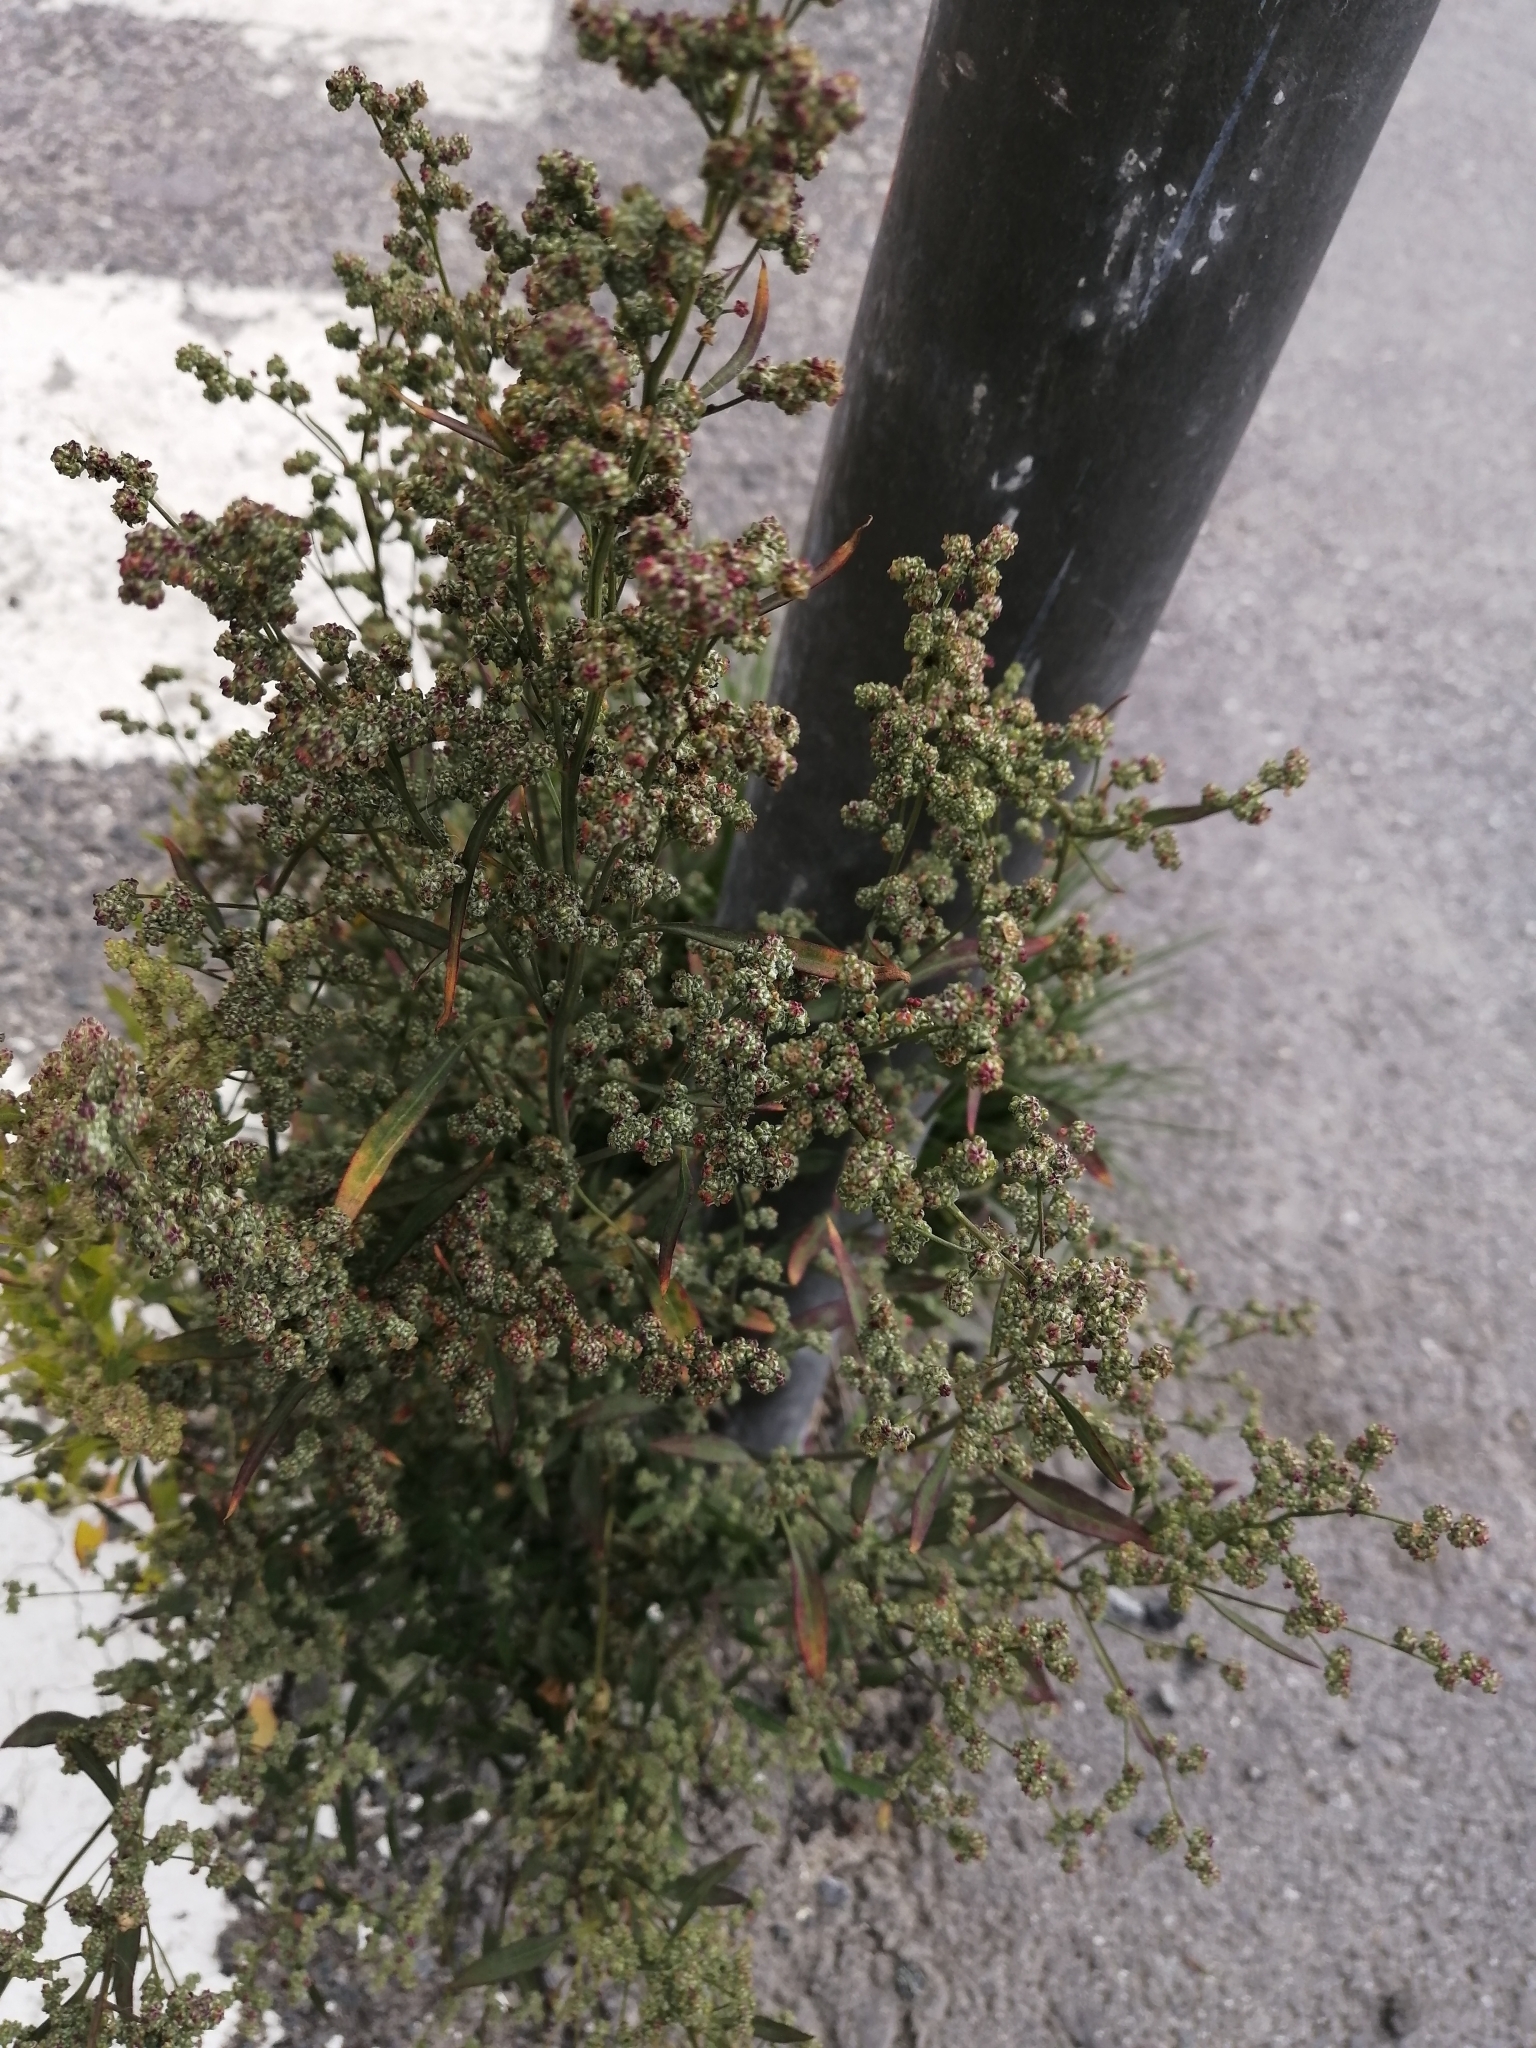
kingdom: Plantae
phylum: Tracheophyta
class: Magnoliopsida
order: Caryophyllales
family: Amaranthaceae
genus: Chenopodium
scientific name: Chenopodium album
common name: Fat-hen
